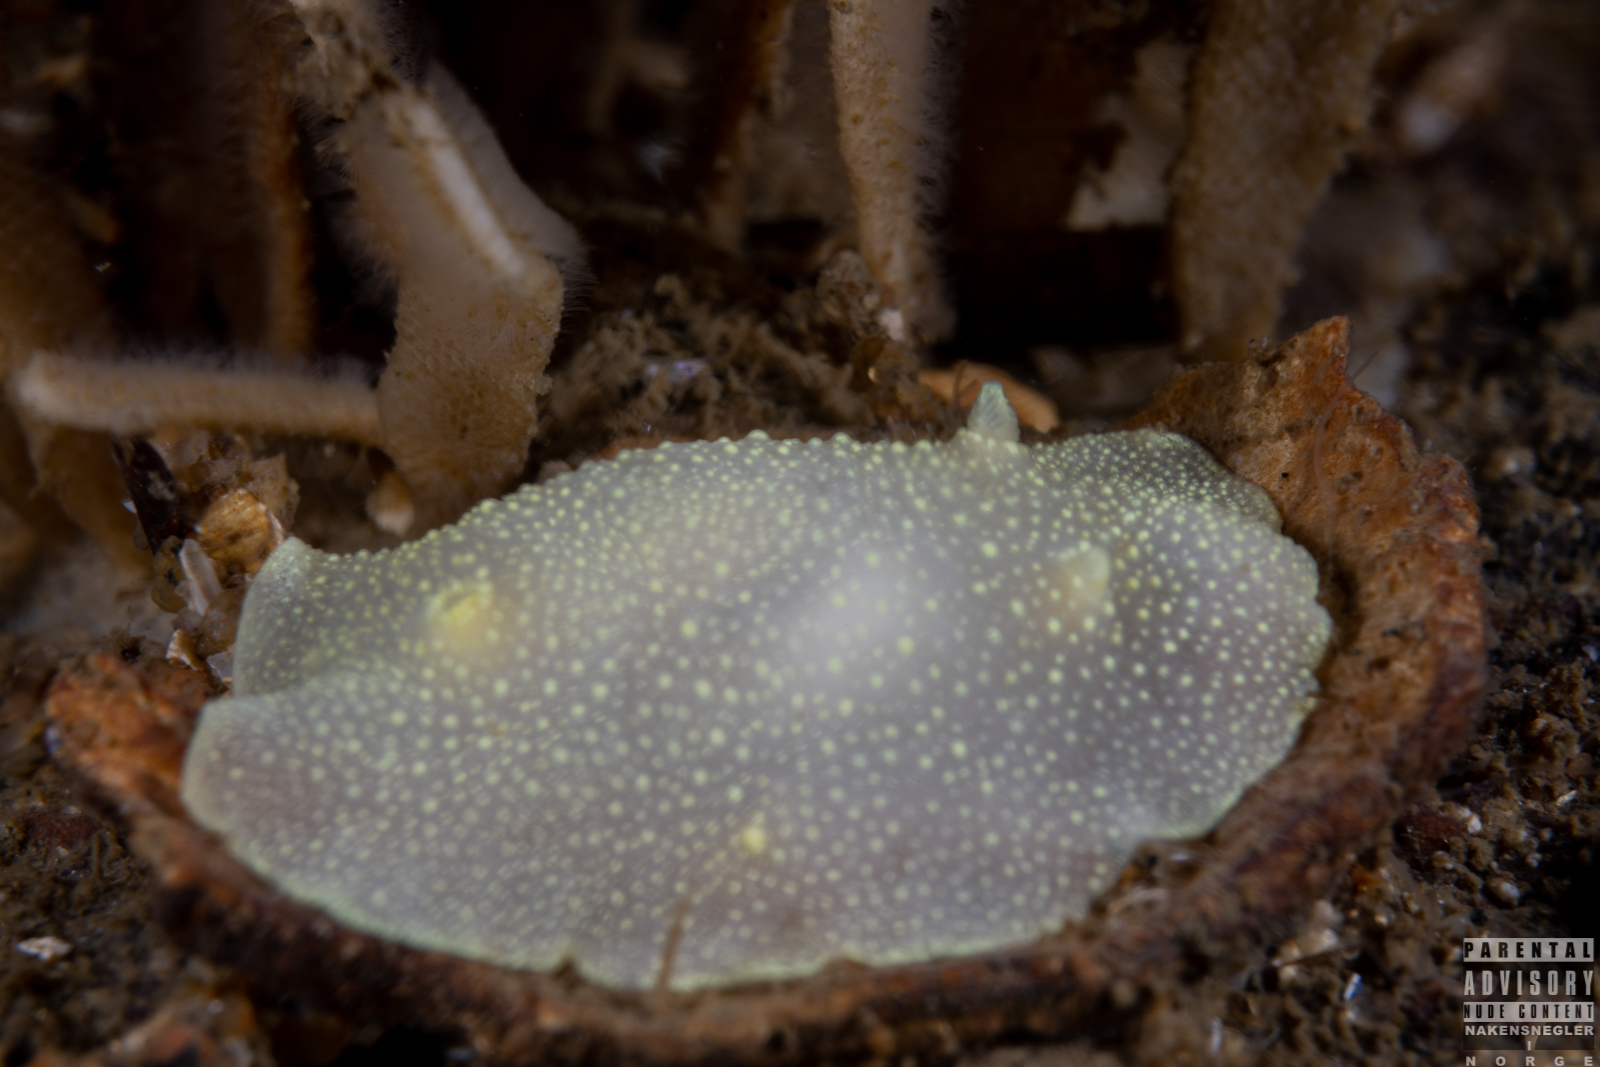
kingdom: Animalia
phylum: Mollusca
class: Gastropoda
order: Nudibranchia
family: Cadlinidae
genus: Cadlina
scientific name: Cadlina laevis
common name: White atlantic cadlina
